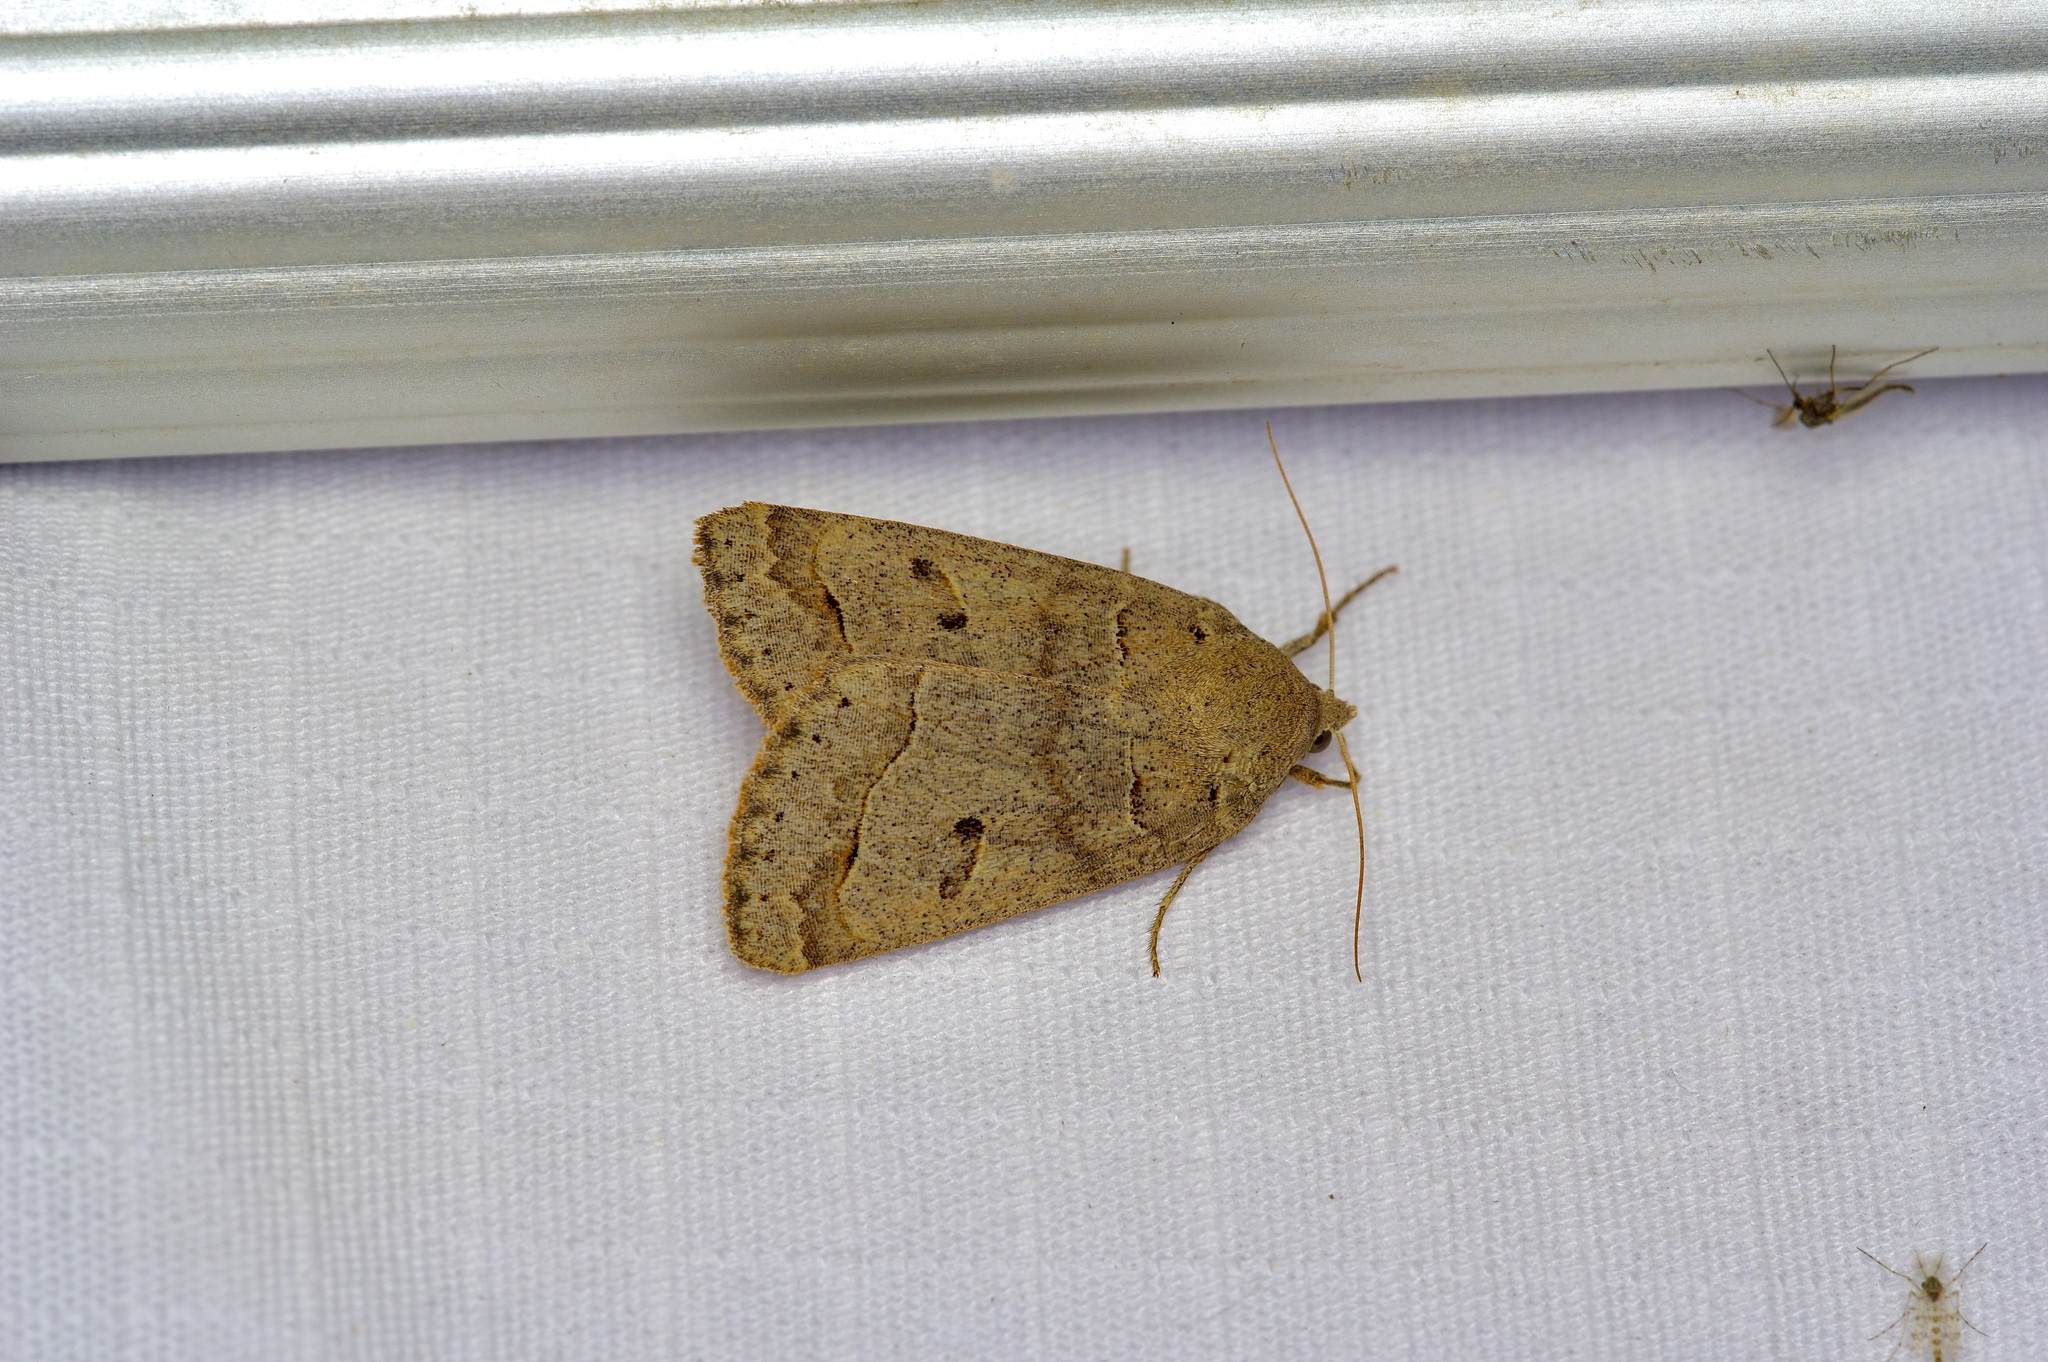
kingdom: Animalia
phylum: Arthropoda
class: Insecta
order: Lepidoptera
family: Erebidae
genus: Phoberia
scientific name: Phoberia atomaris
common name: Common oak moth
